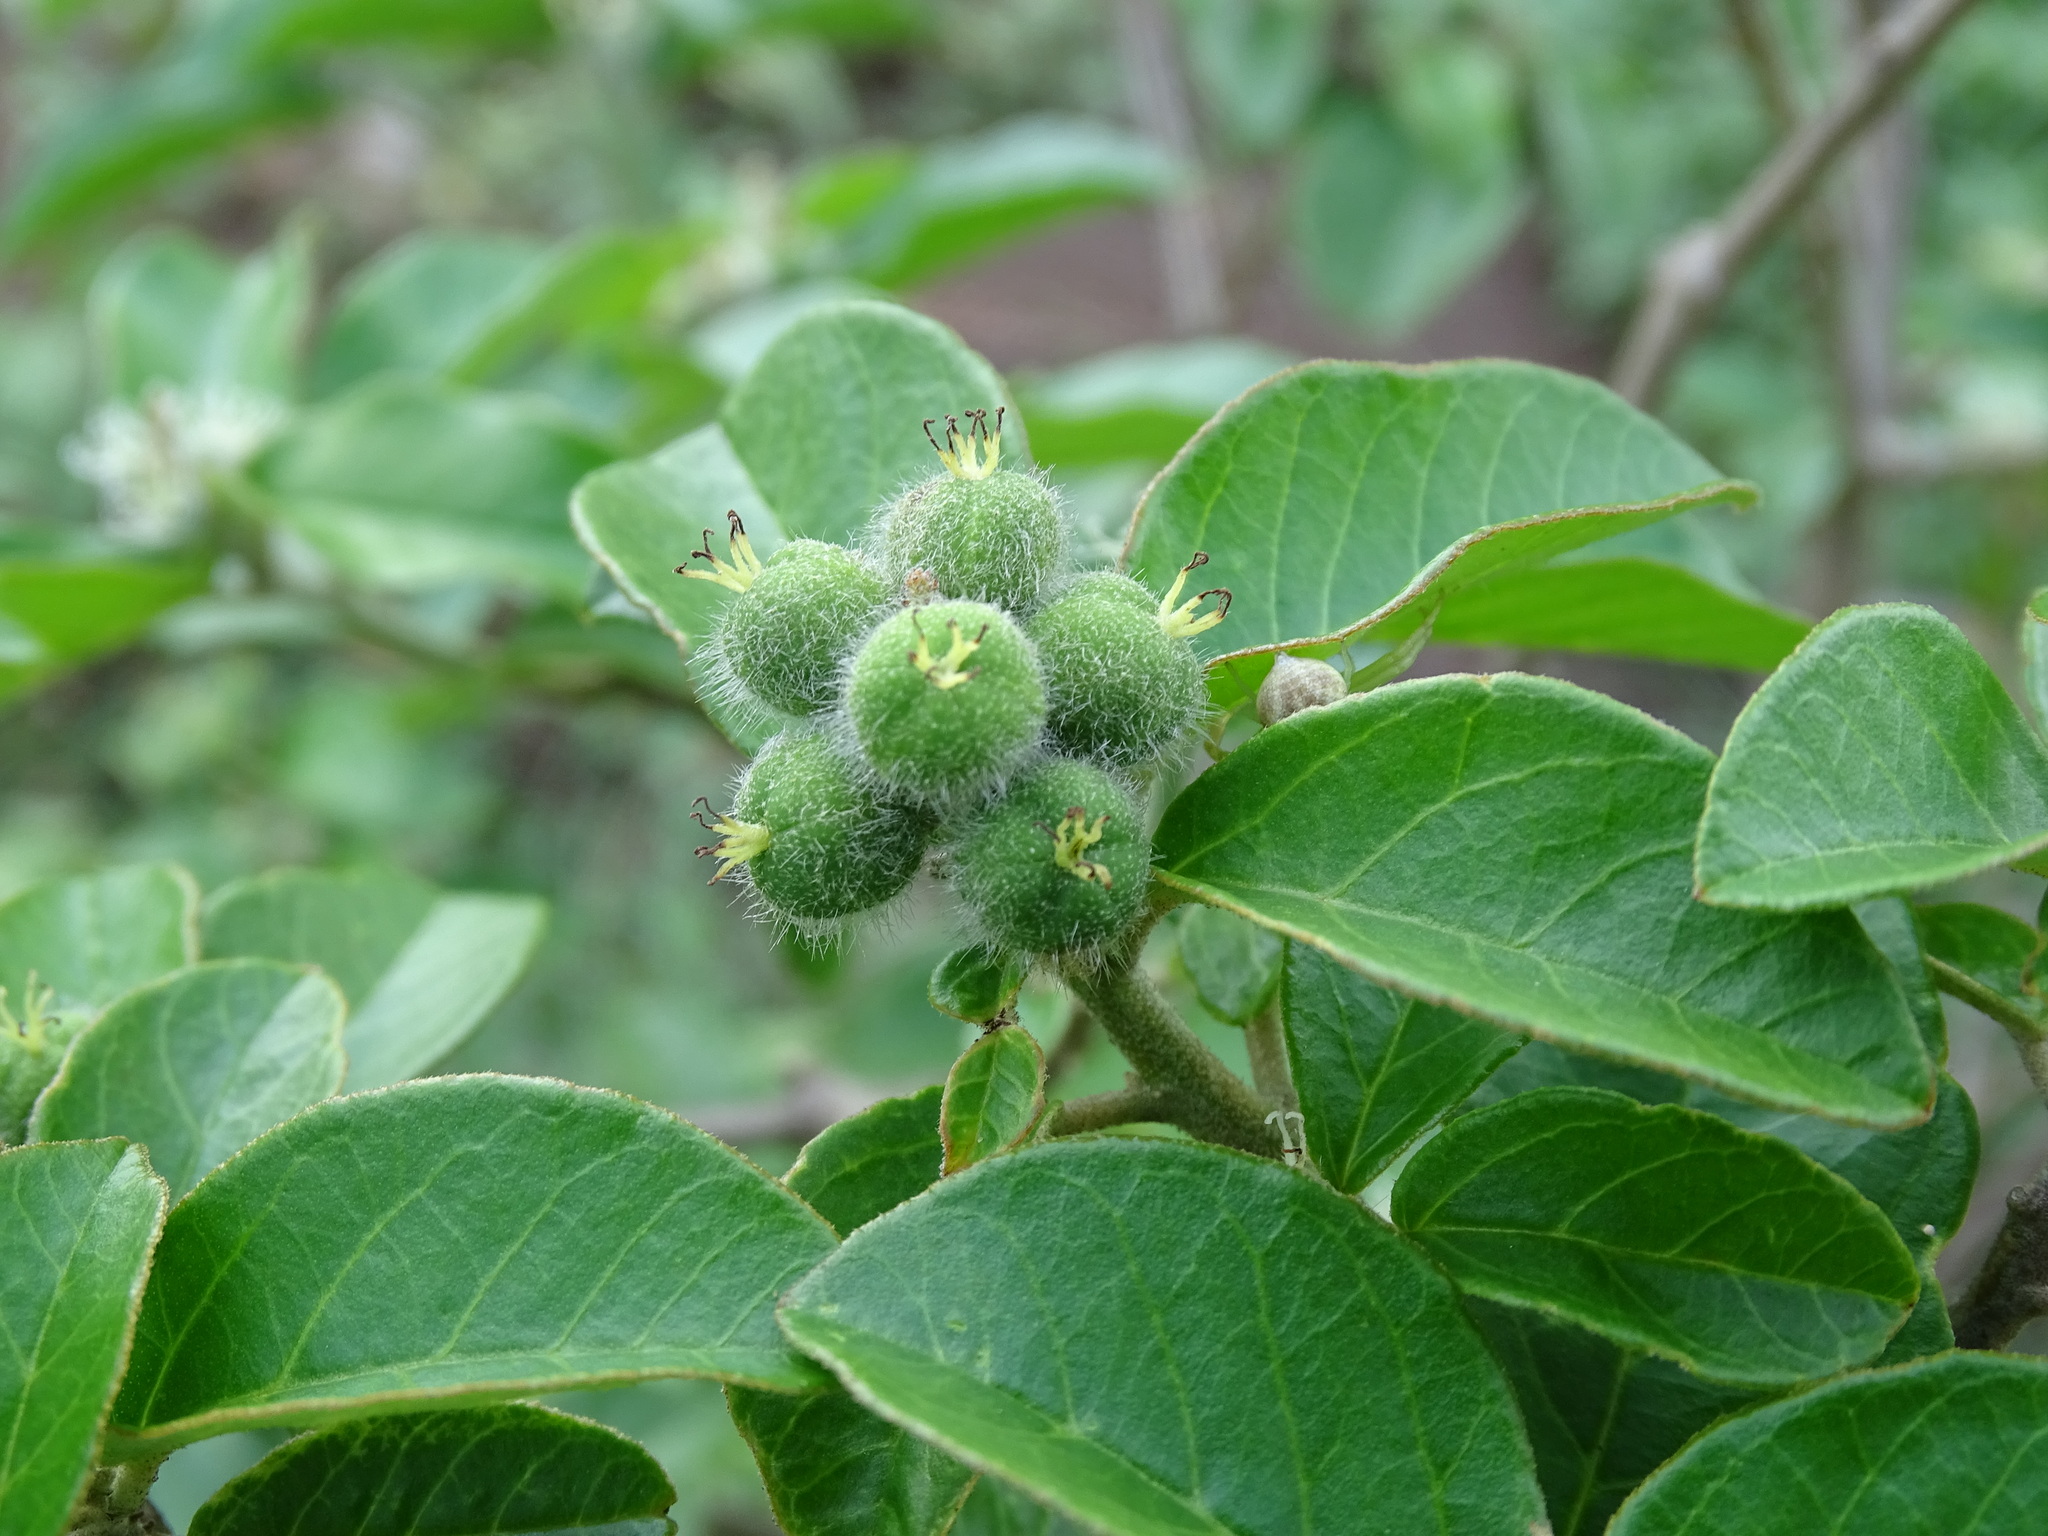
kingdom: Plantae
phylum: Tracheophyta
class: Magnoliopsida
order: Malpighiales
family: Euphorbiaceae
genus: Croton
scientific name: Croton cortesianus
